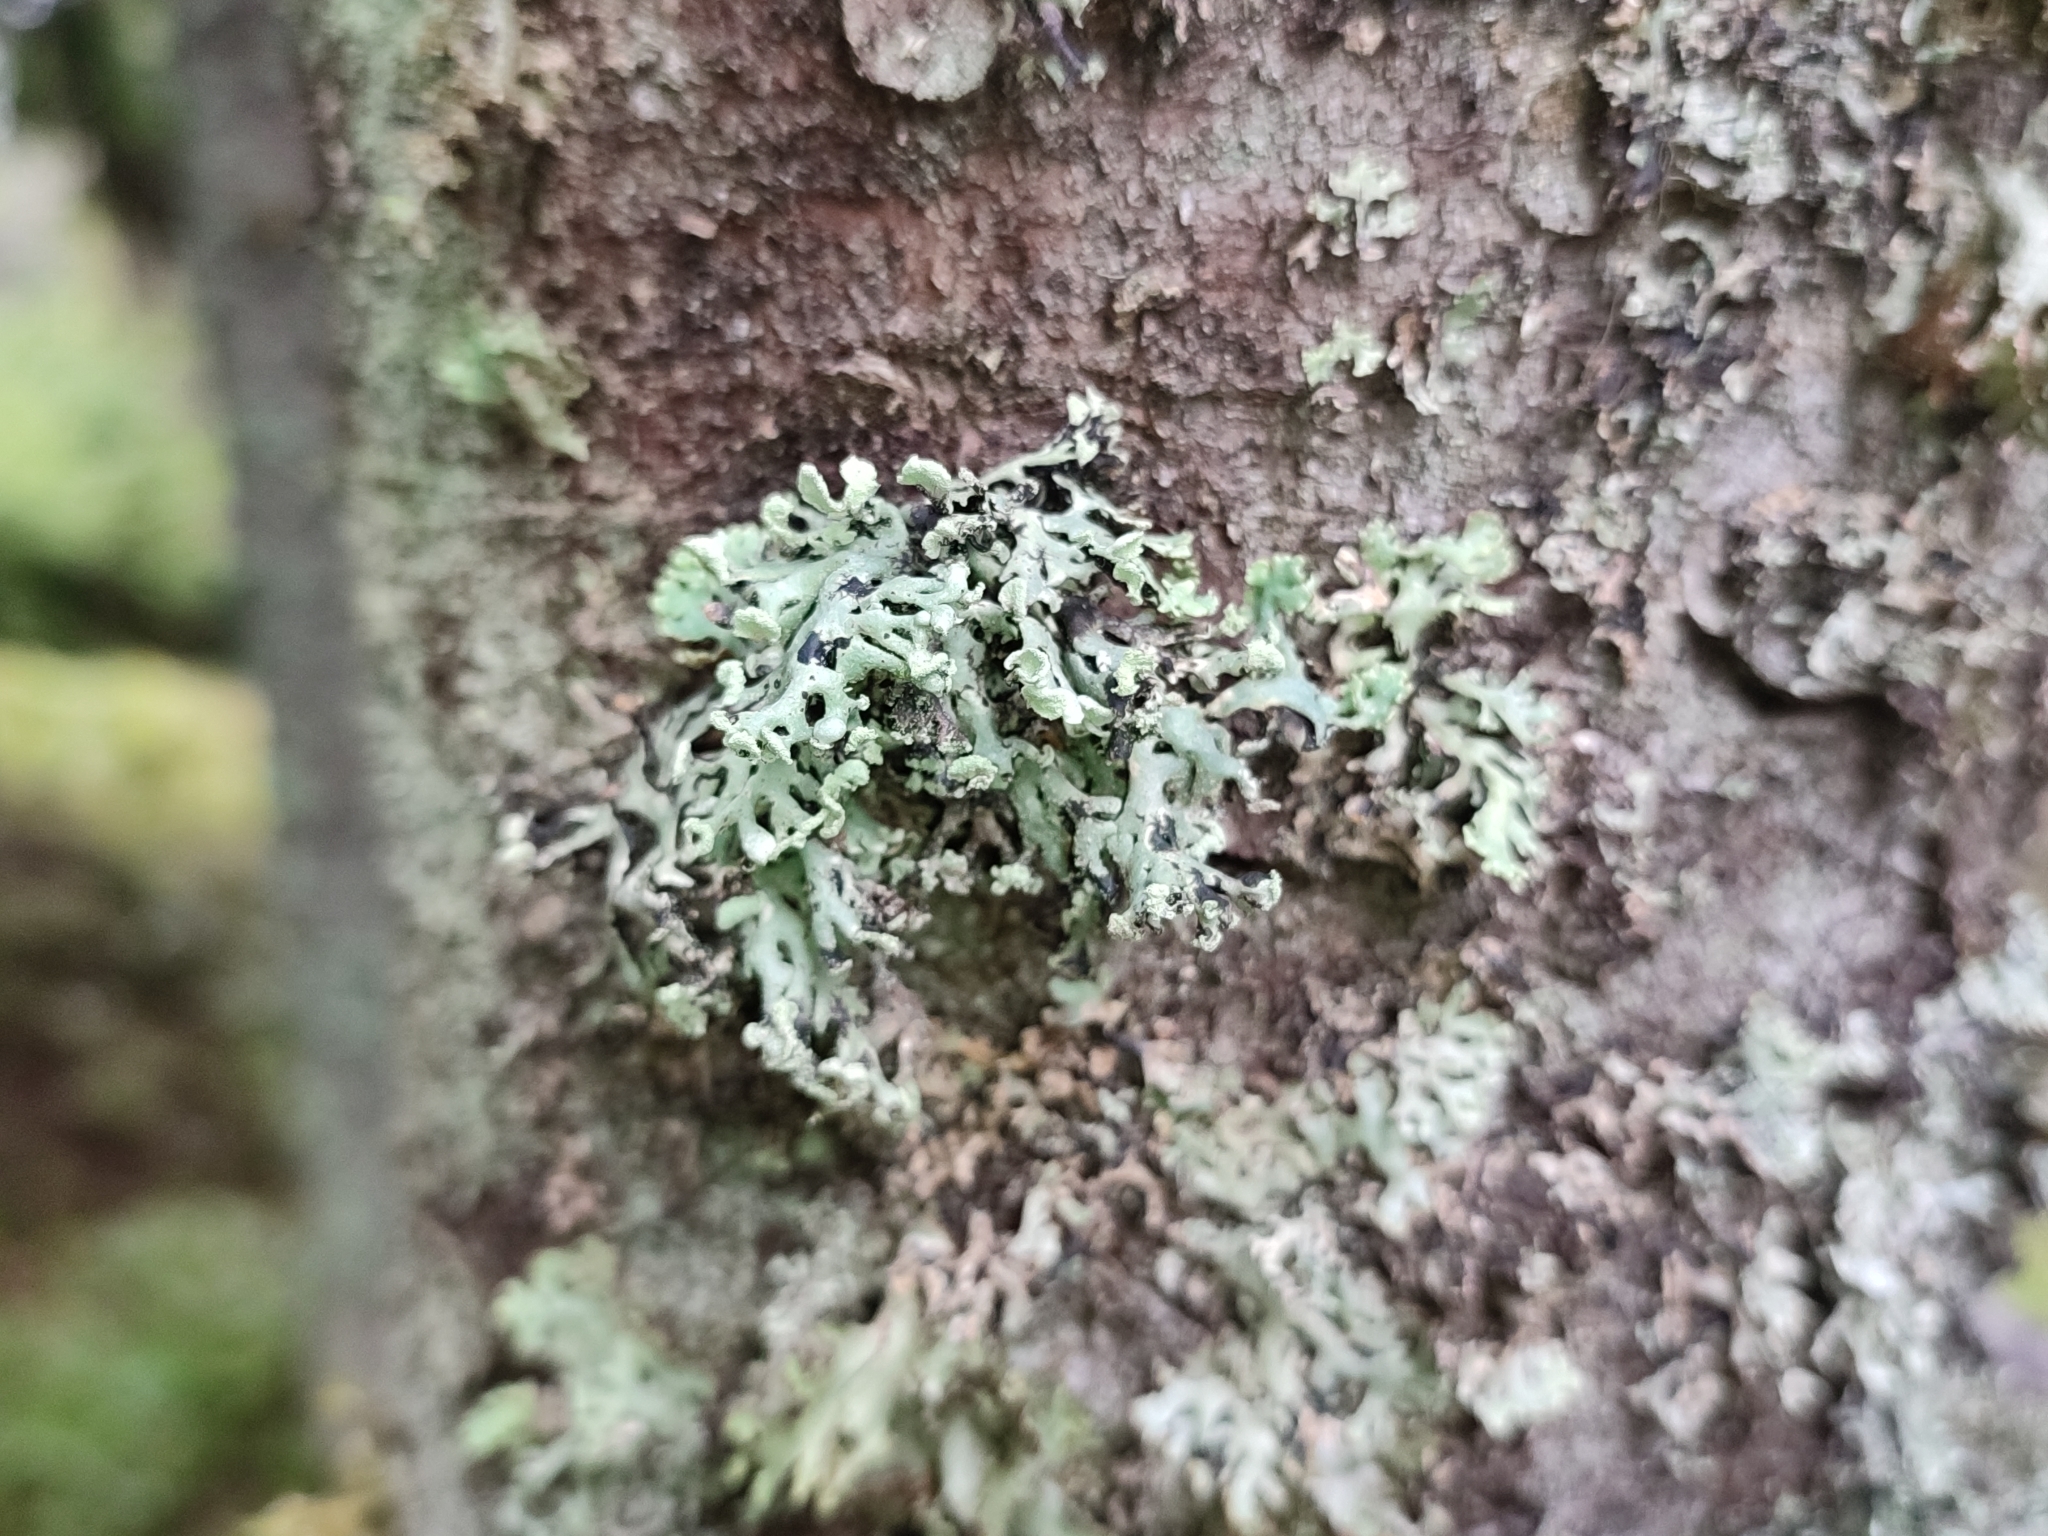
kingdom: Fungi
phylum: Ascomycota
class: Lecanoromycetes
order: Lecanorales
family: Parmeliaceae
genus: Hypogymnia
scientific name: Hypogymnia physodes
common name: Dark crottle
